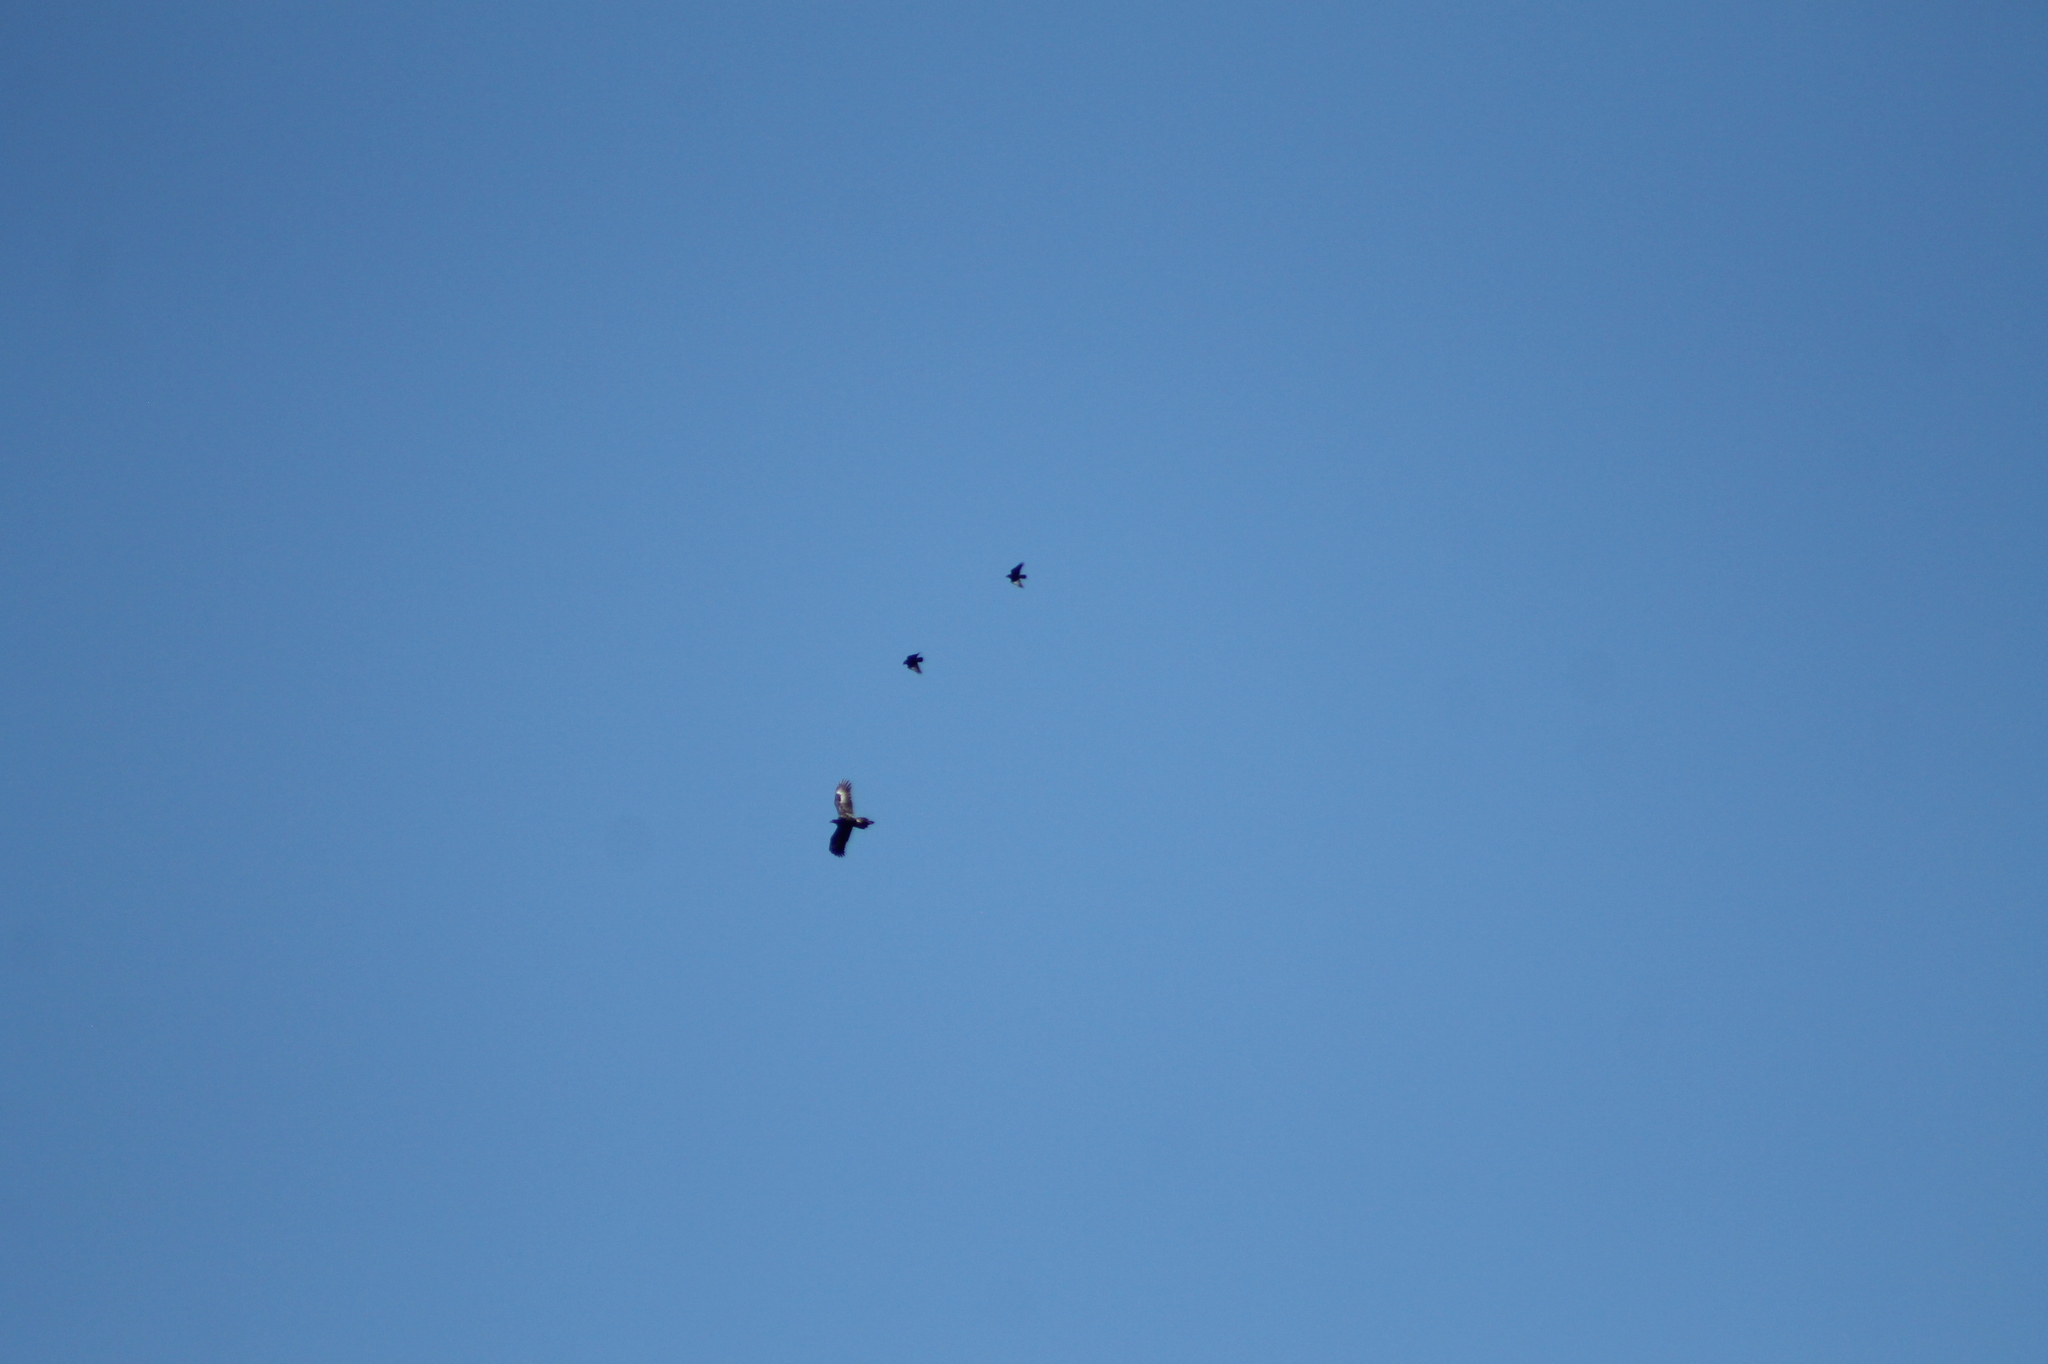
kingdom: Animalia
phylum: Chordata
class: Aves
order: Accipitriformes
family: Accipitridae
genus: Aquila
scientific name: Aquila audax
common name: Wedge-tailed eagle
